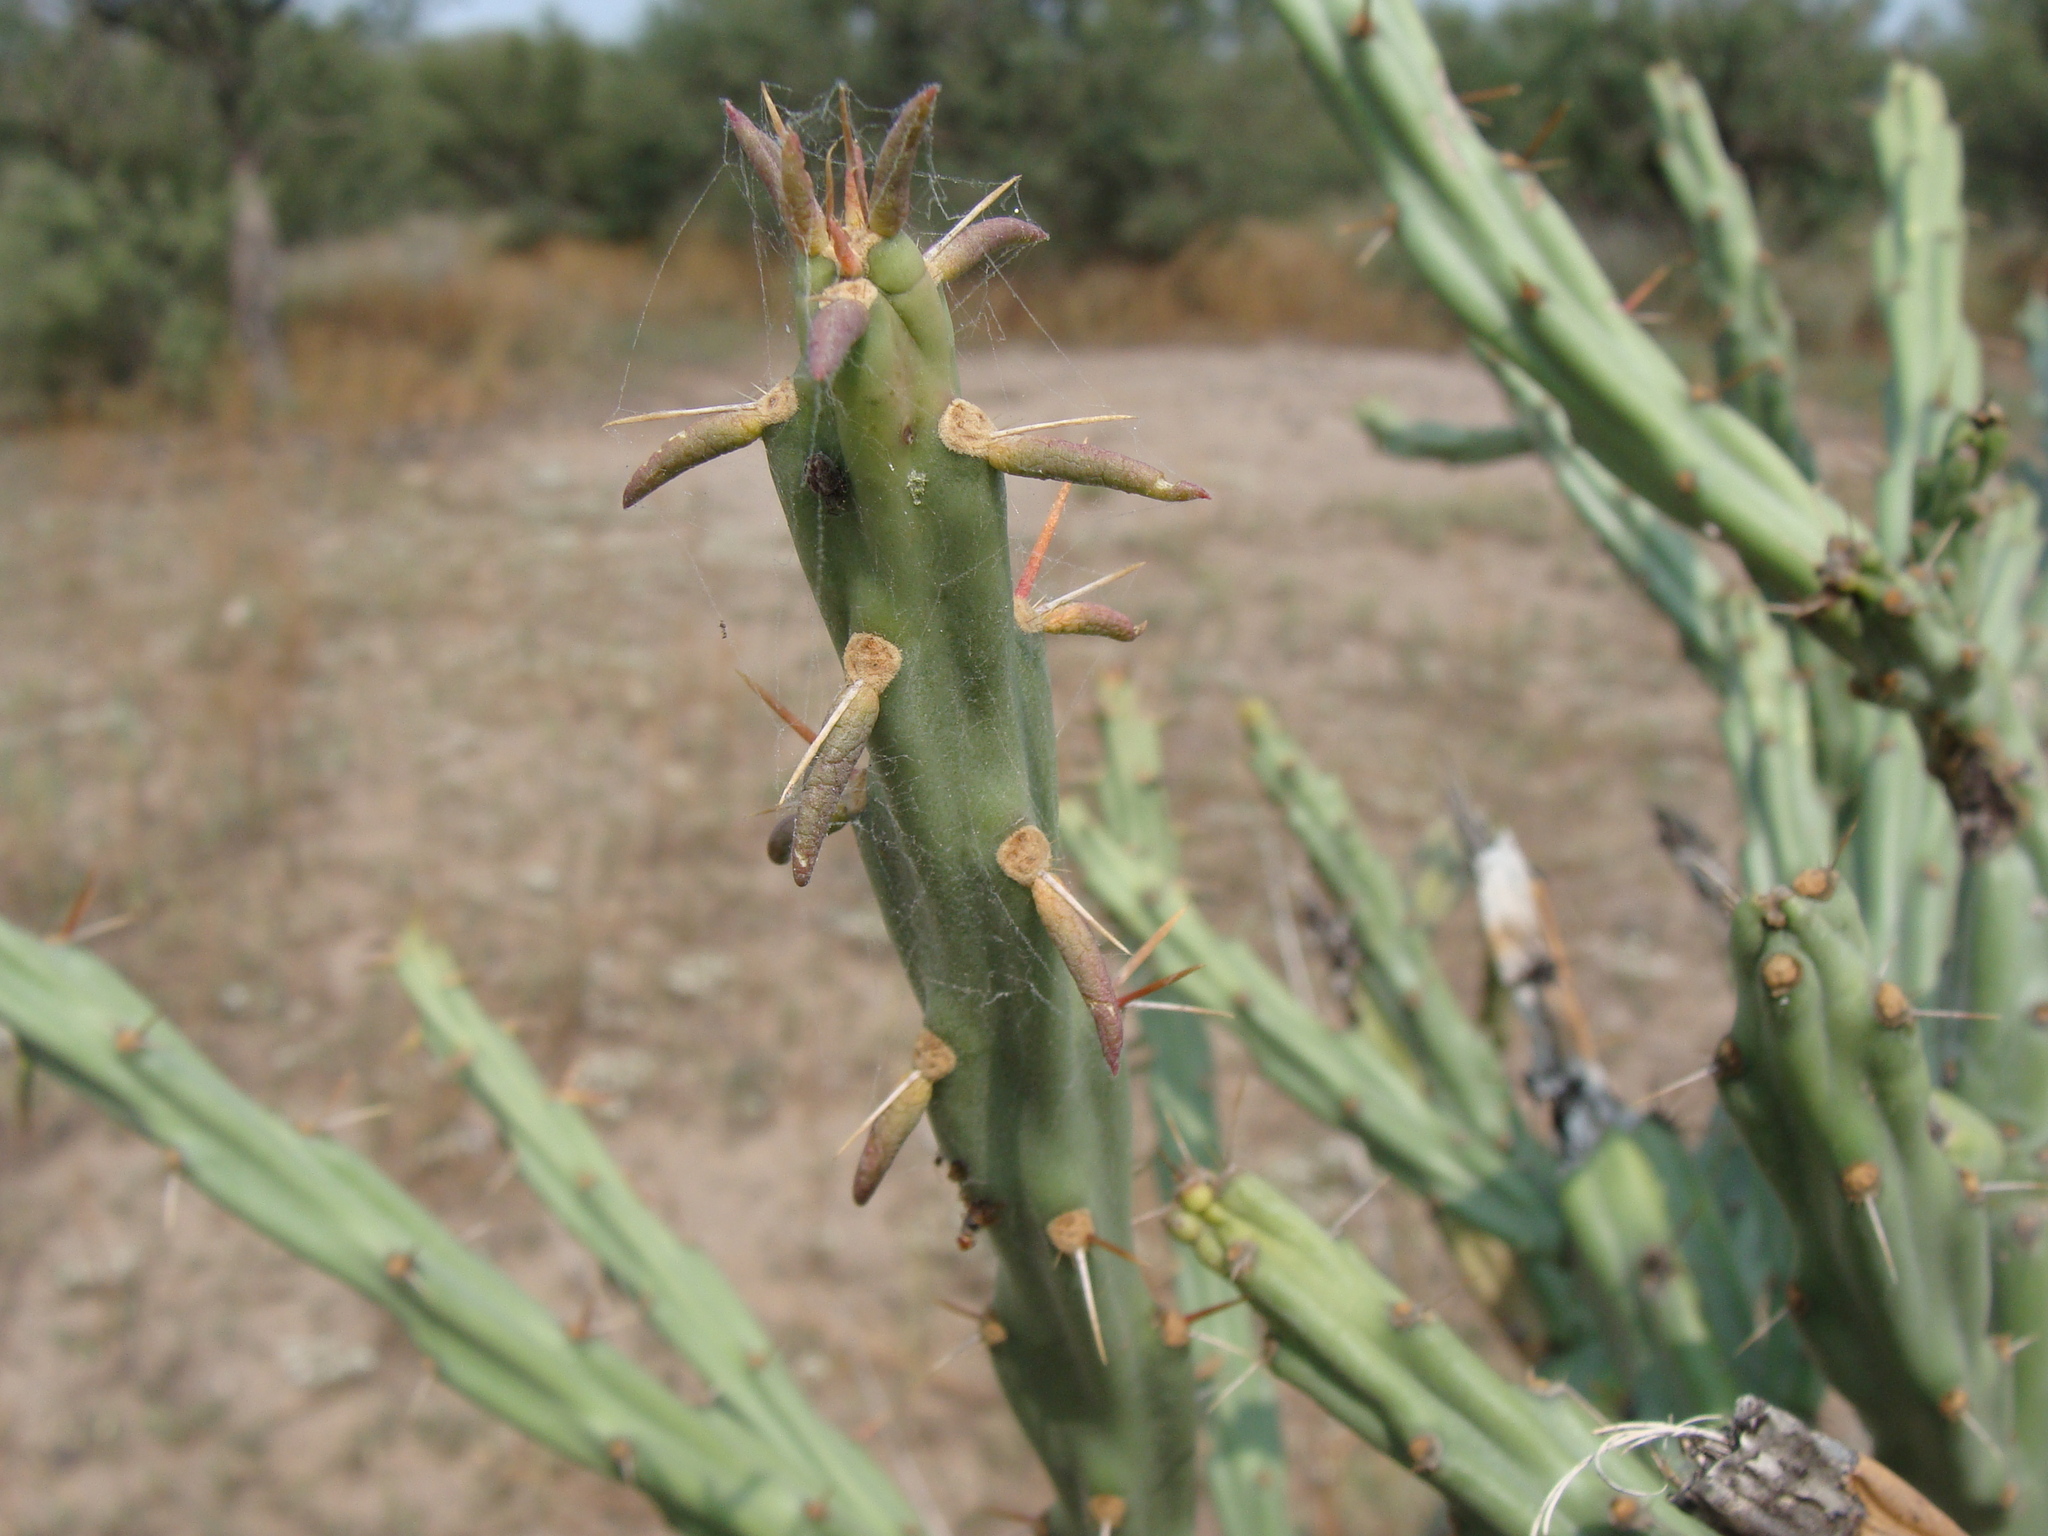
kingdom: Plantae
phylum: Tracheophyta
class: Magnoliopsida
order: Caryophyllales
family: Cactaceae
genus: Cylindropuntia
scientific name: Cylindropuntia thurberi
